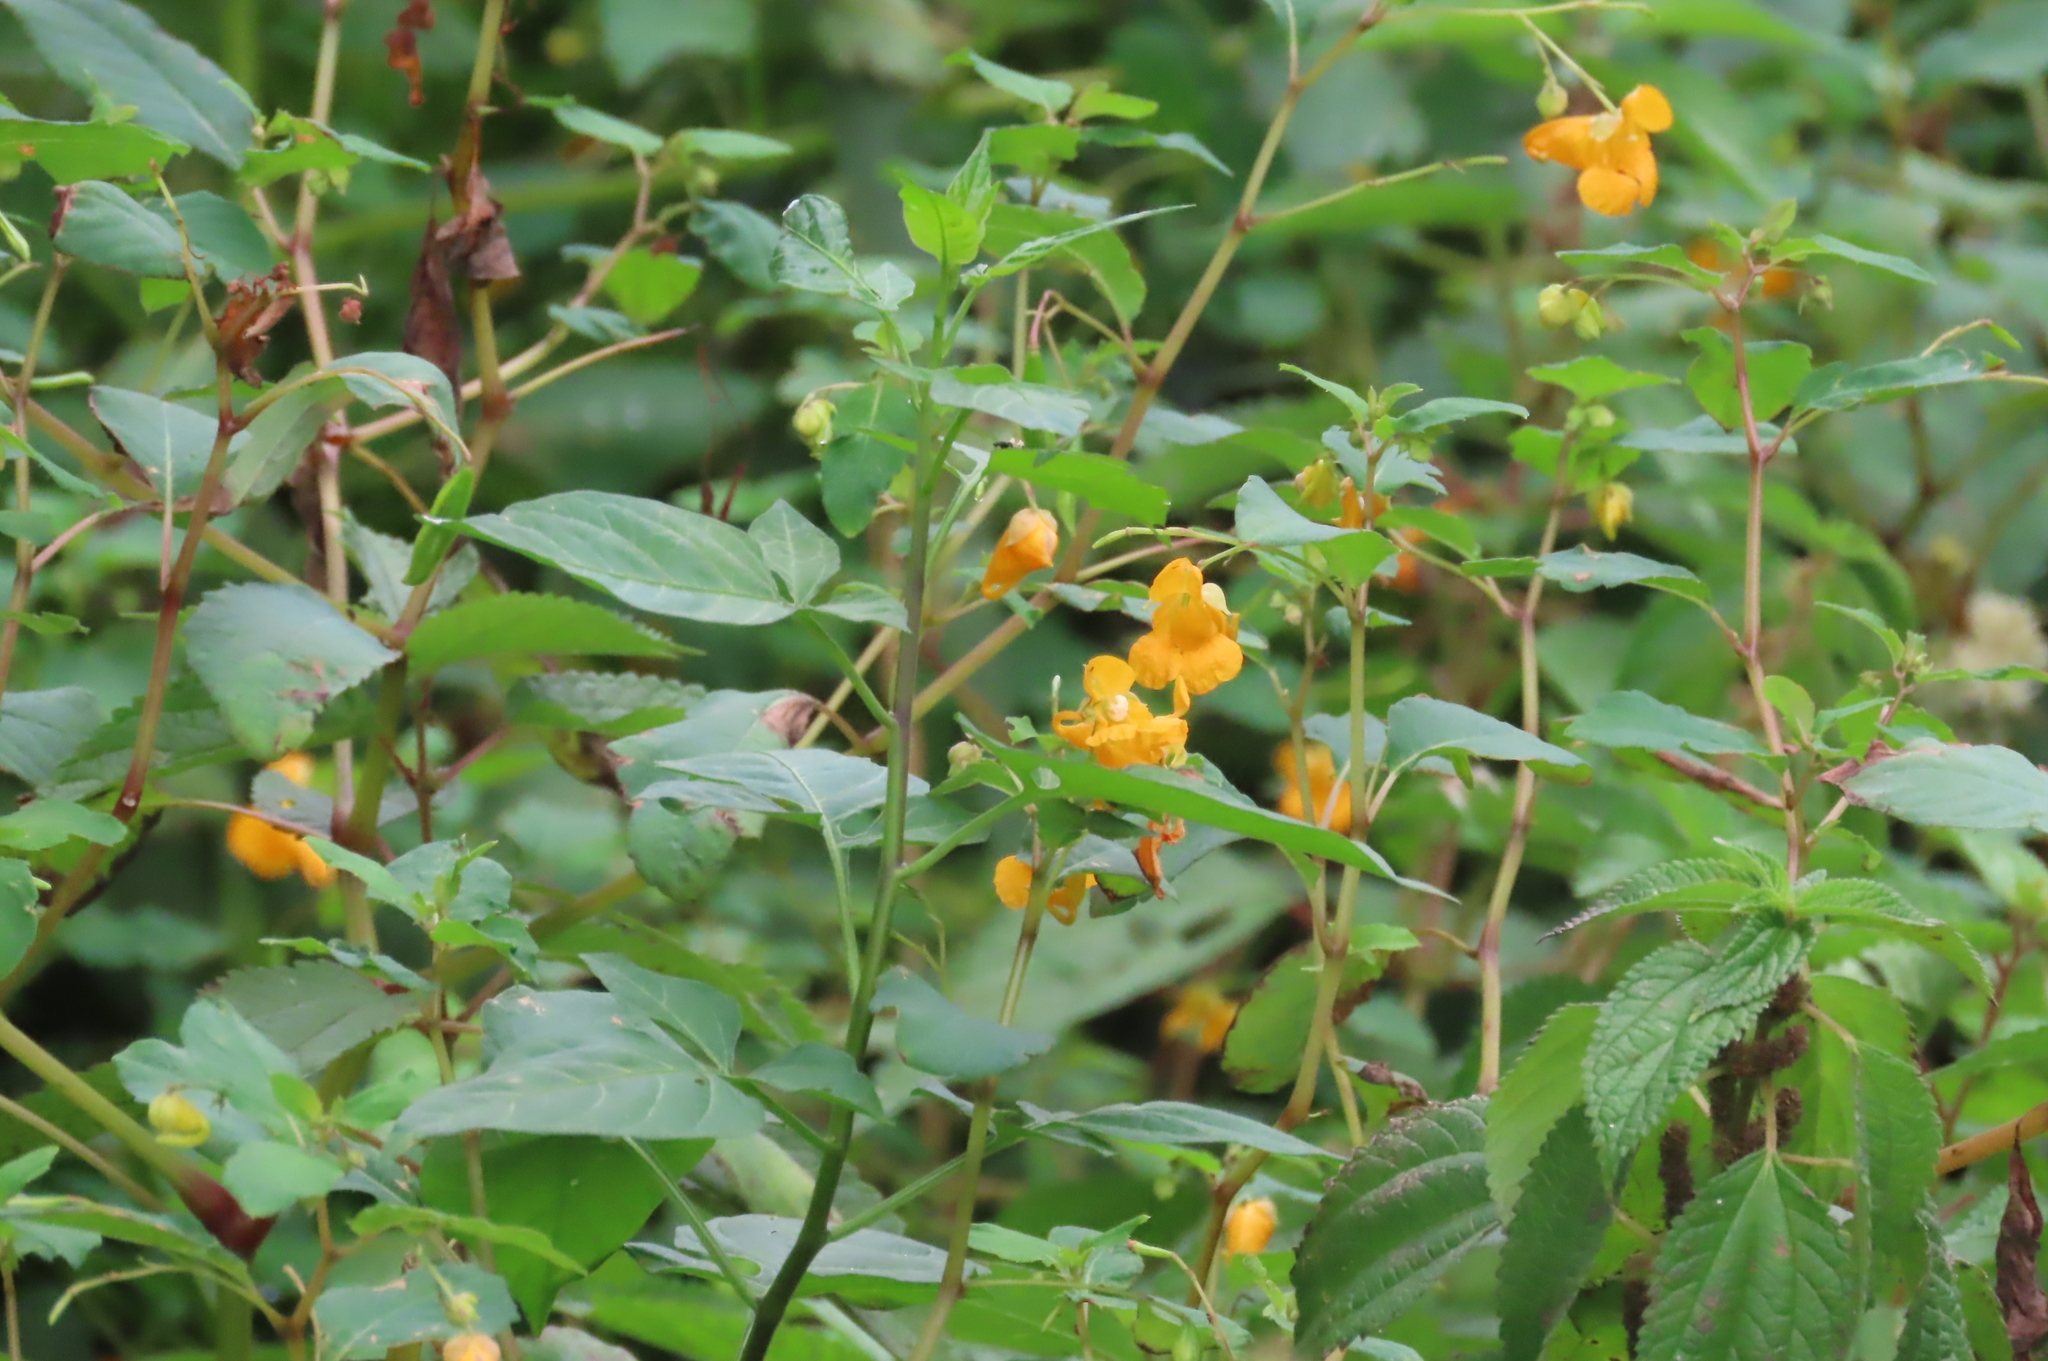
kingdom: Plantae
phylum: Tracheophyta
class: Magnoliopsida
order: Ericales
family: Balsaminaceae
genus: Impatiens
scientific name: Impatiens capensis
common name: Orange balsam
